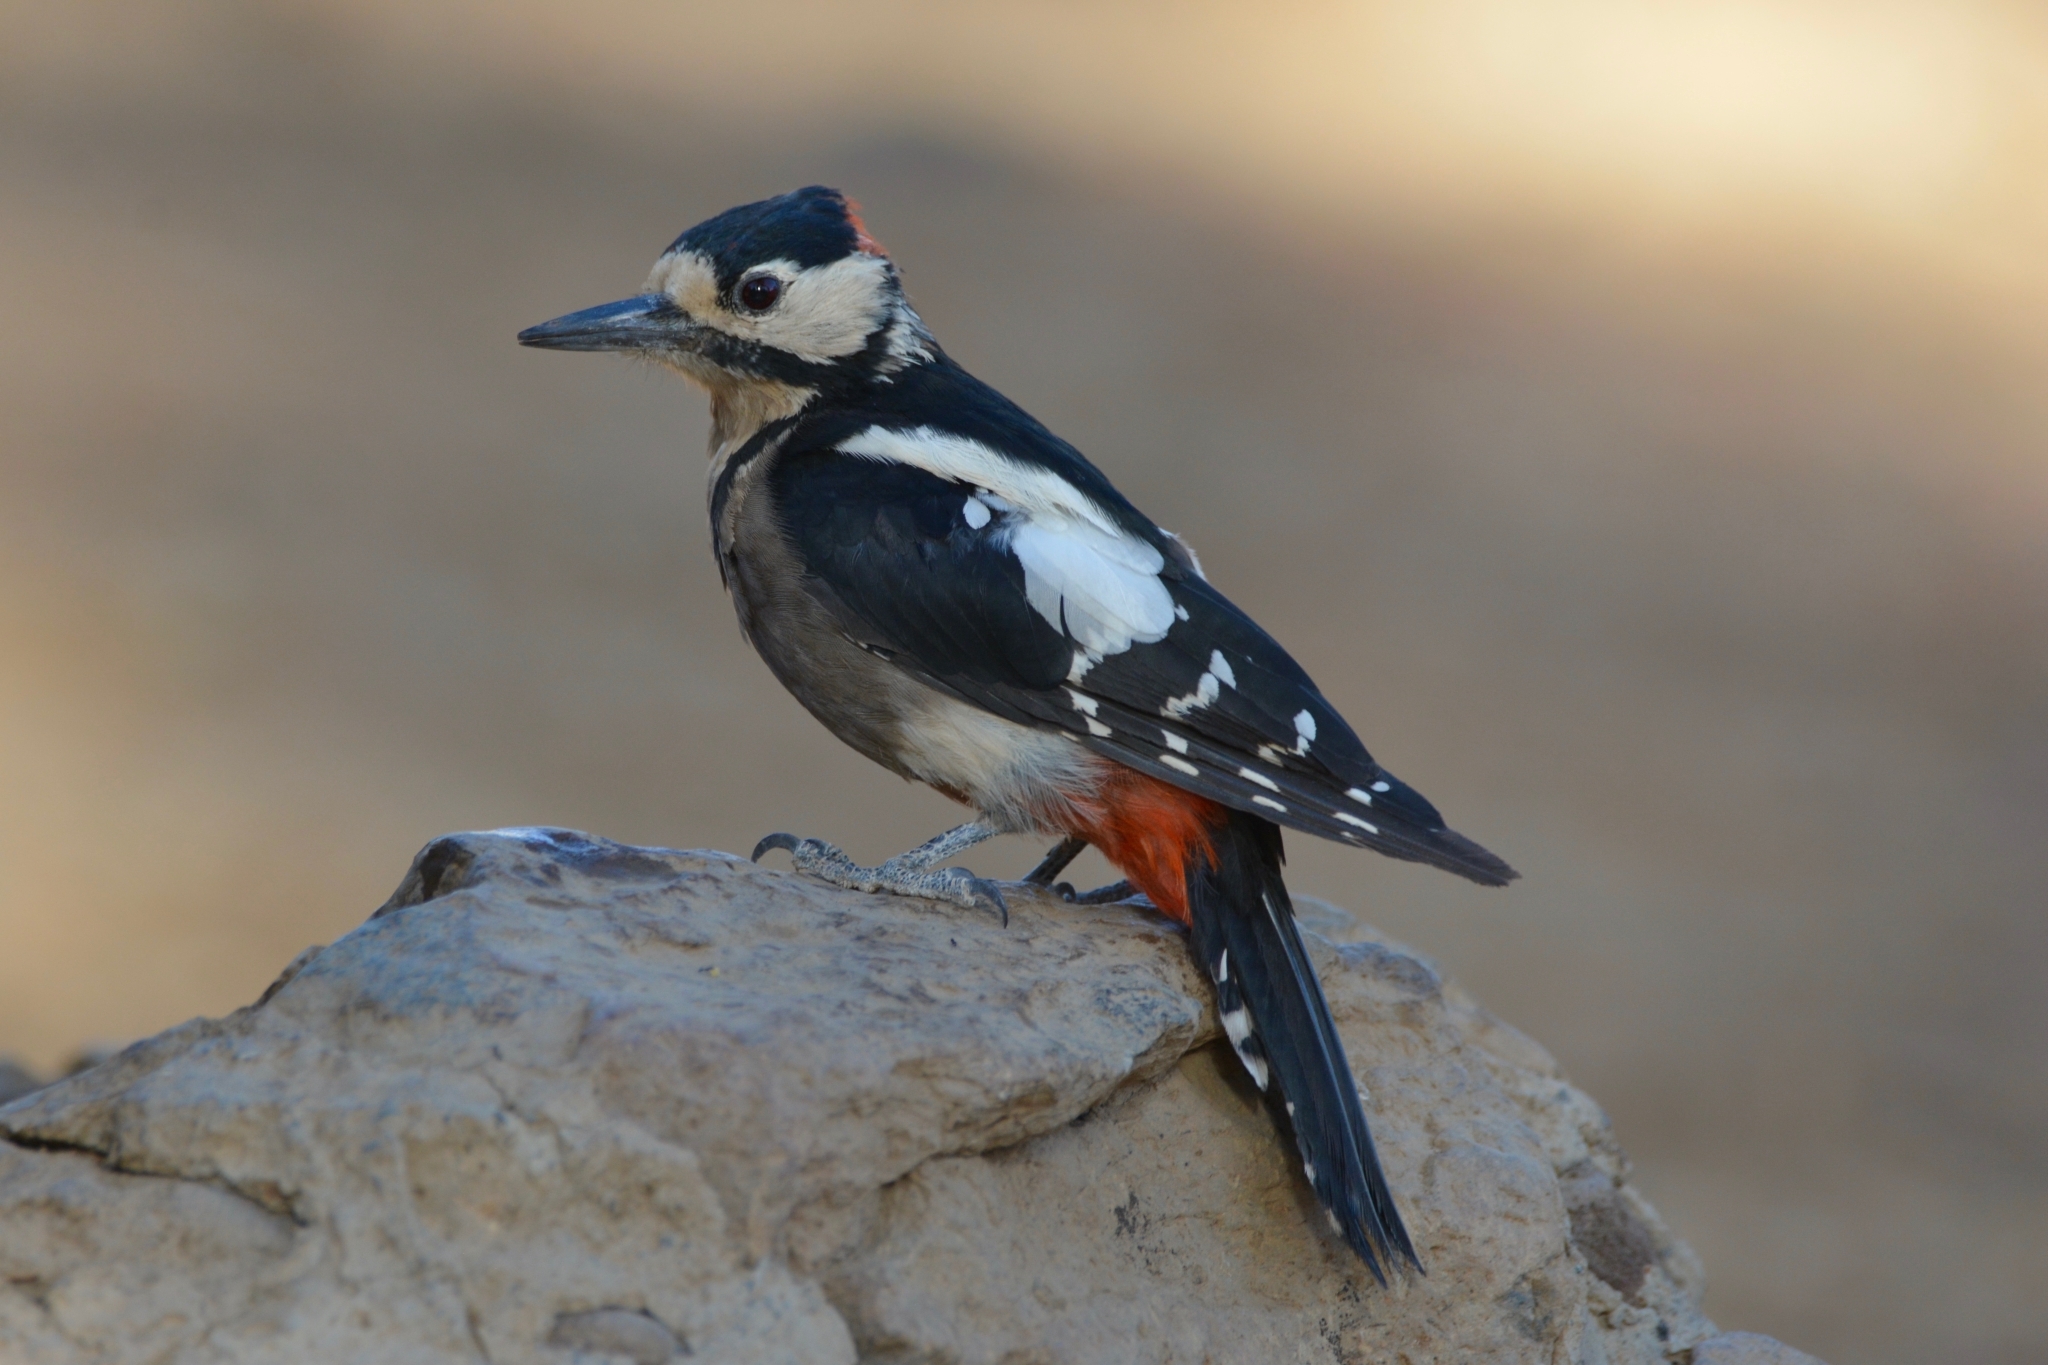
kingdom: Animalia
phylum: Chordata
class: Aves
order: Piciformes
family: Picidae
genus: Dendrocopos
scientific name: Dendrocopos major
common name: Great spotted woodpecker
